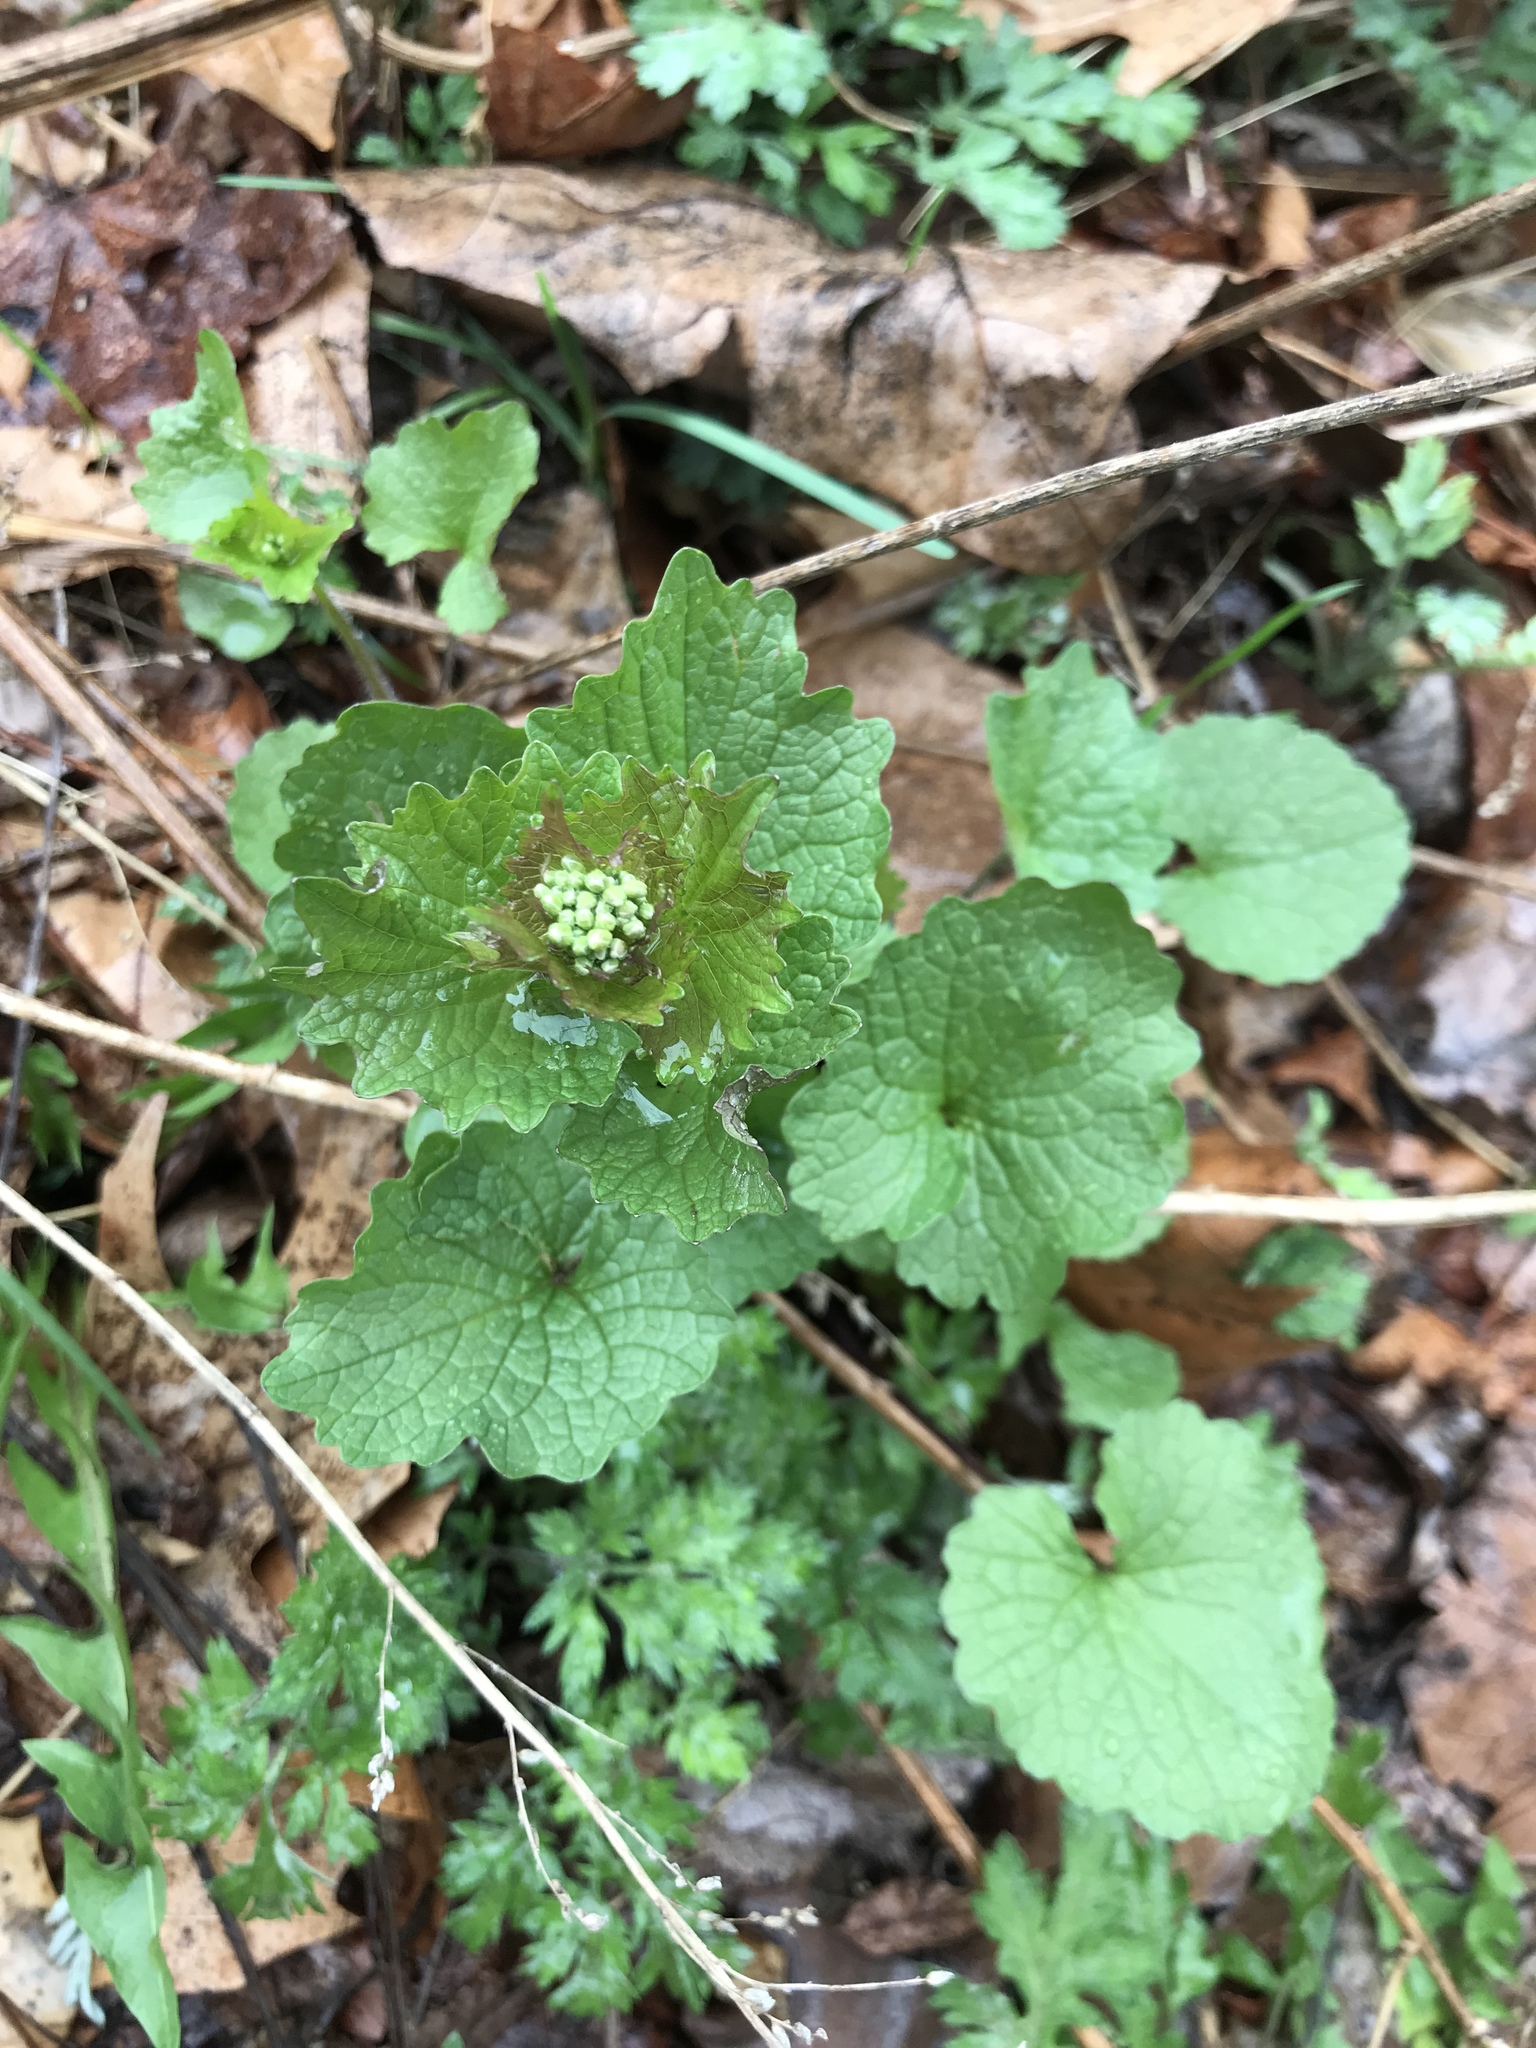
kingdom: Plantae
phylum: Tracheophyta
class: Magnoliopsida
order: Brassicales
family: Brassicaceae
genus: Alliaria
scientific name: Alliaria petiolata
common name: Garlic mustard
